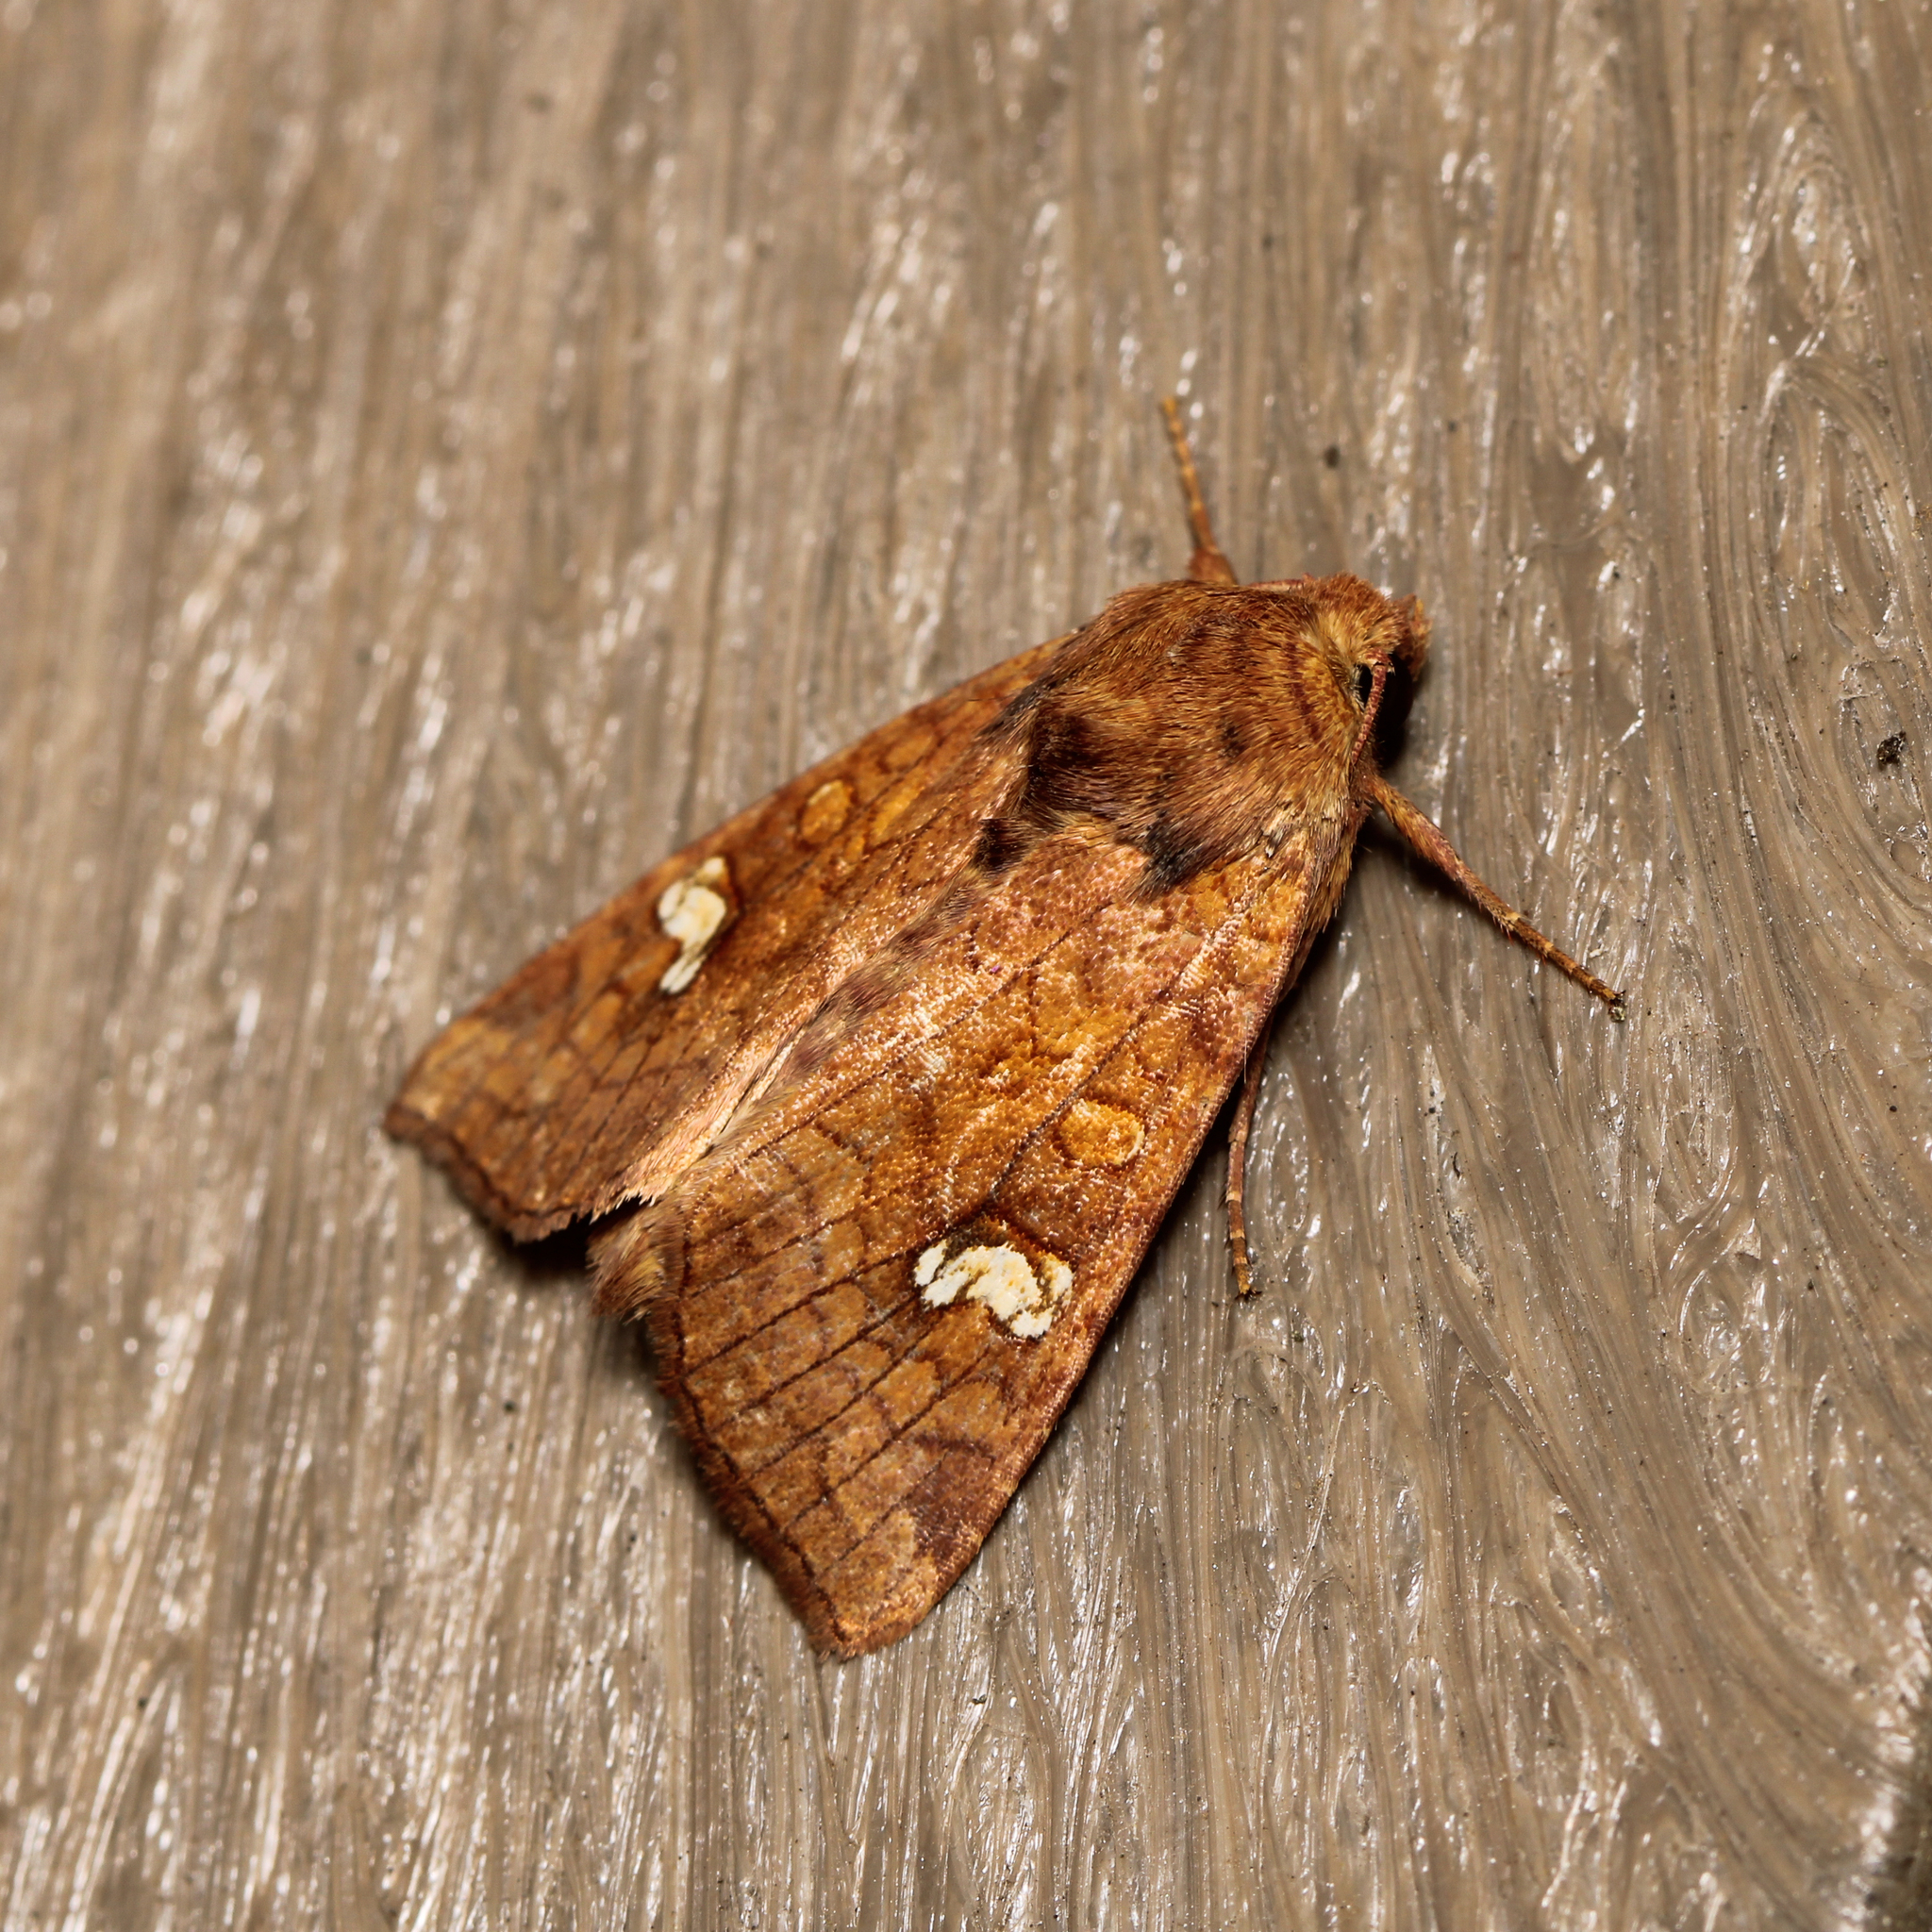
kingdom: Animalia
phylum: Arthropoda
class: Insecta
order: Lepidoptera
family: Noctuidae
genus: Amphipoea
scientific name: Amphipoea
